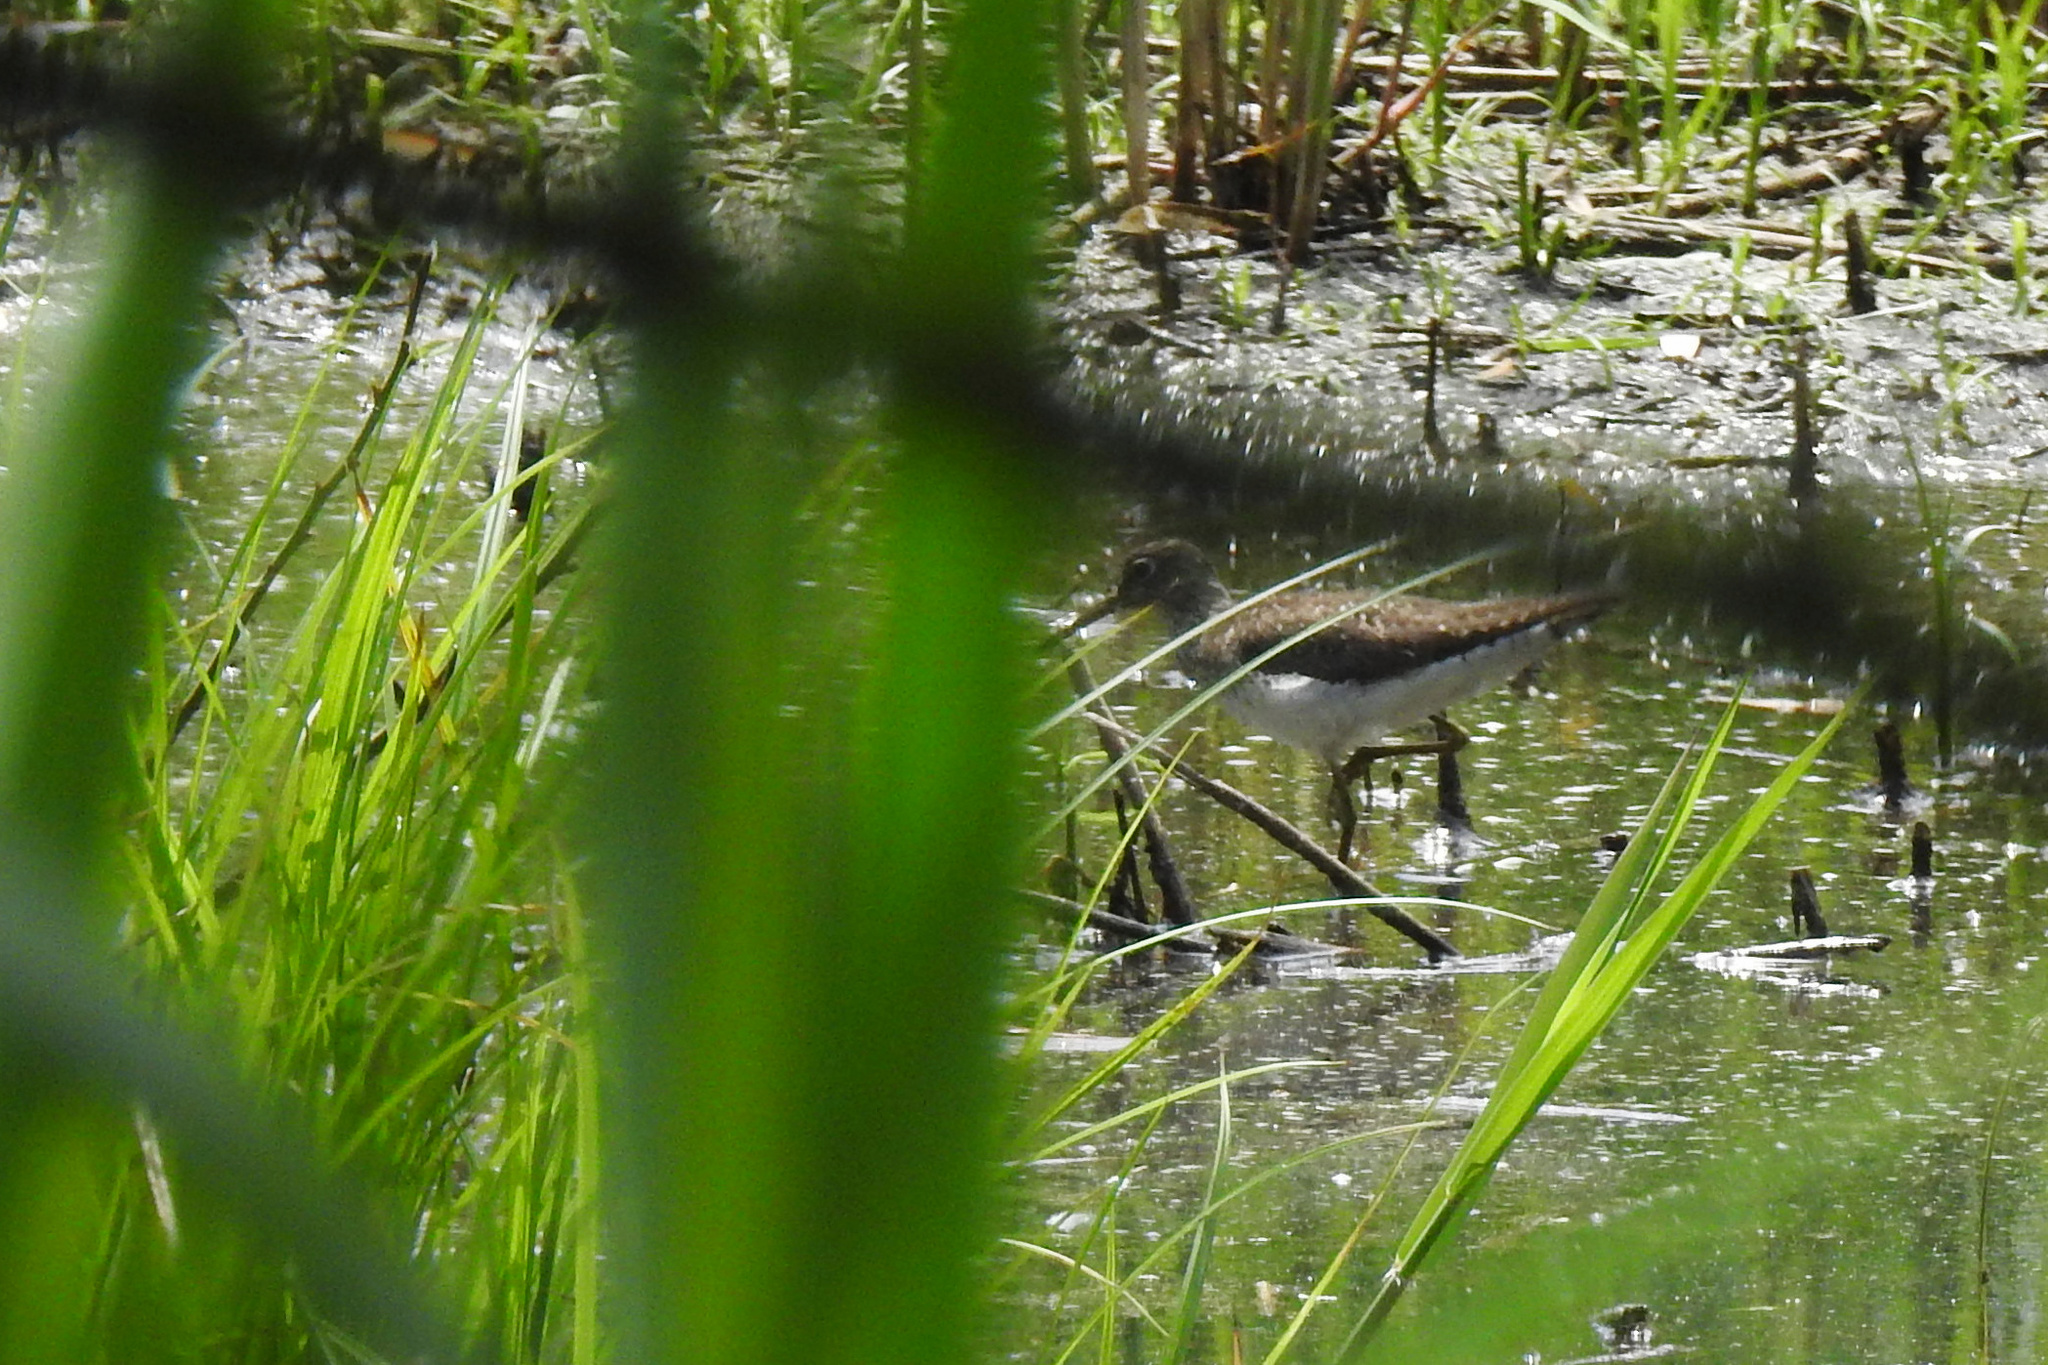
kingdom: Animalia
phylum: Chordata
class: Aves
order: Charadriiformes
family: Scolopacidae
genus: Tringa
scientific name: Tringa solitaria
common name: Solitary sandpiper
